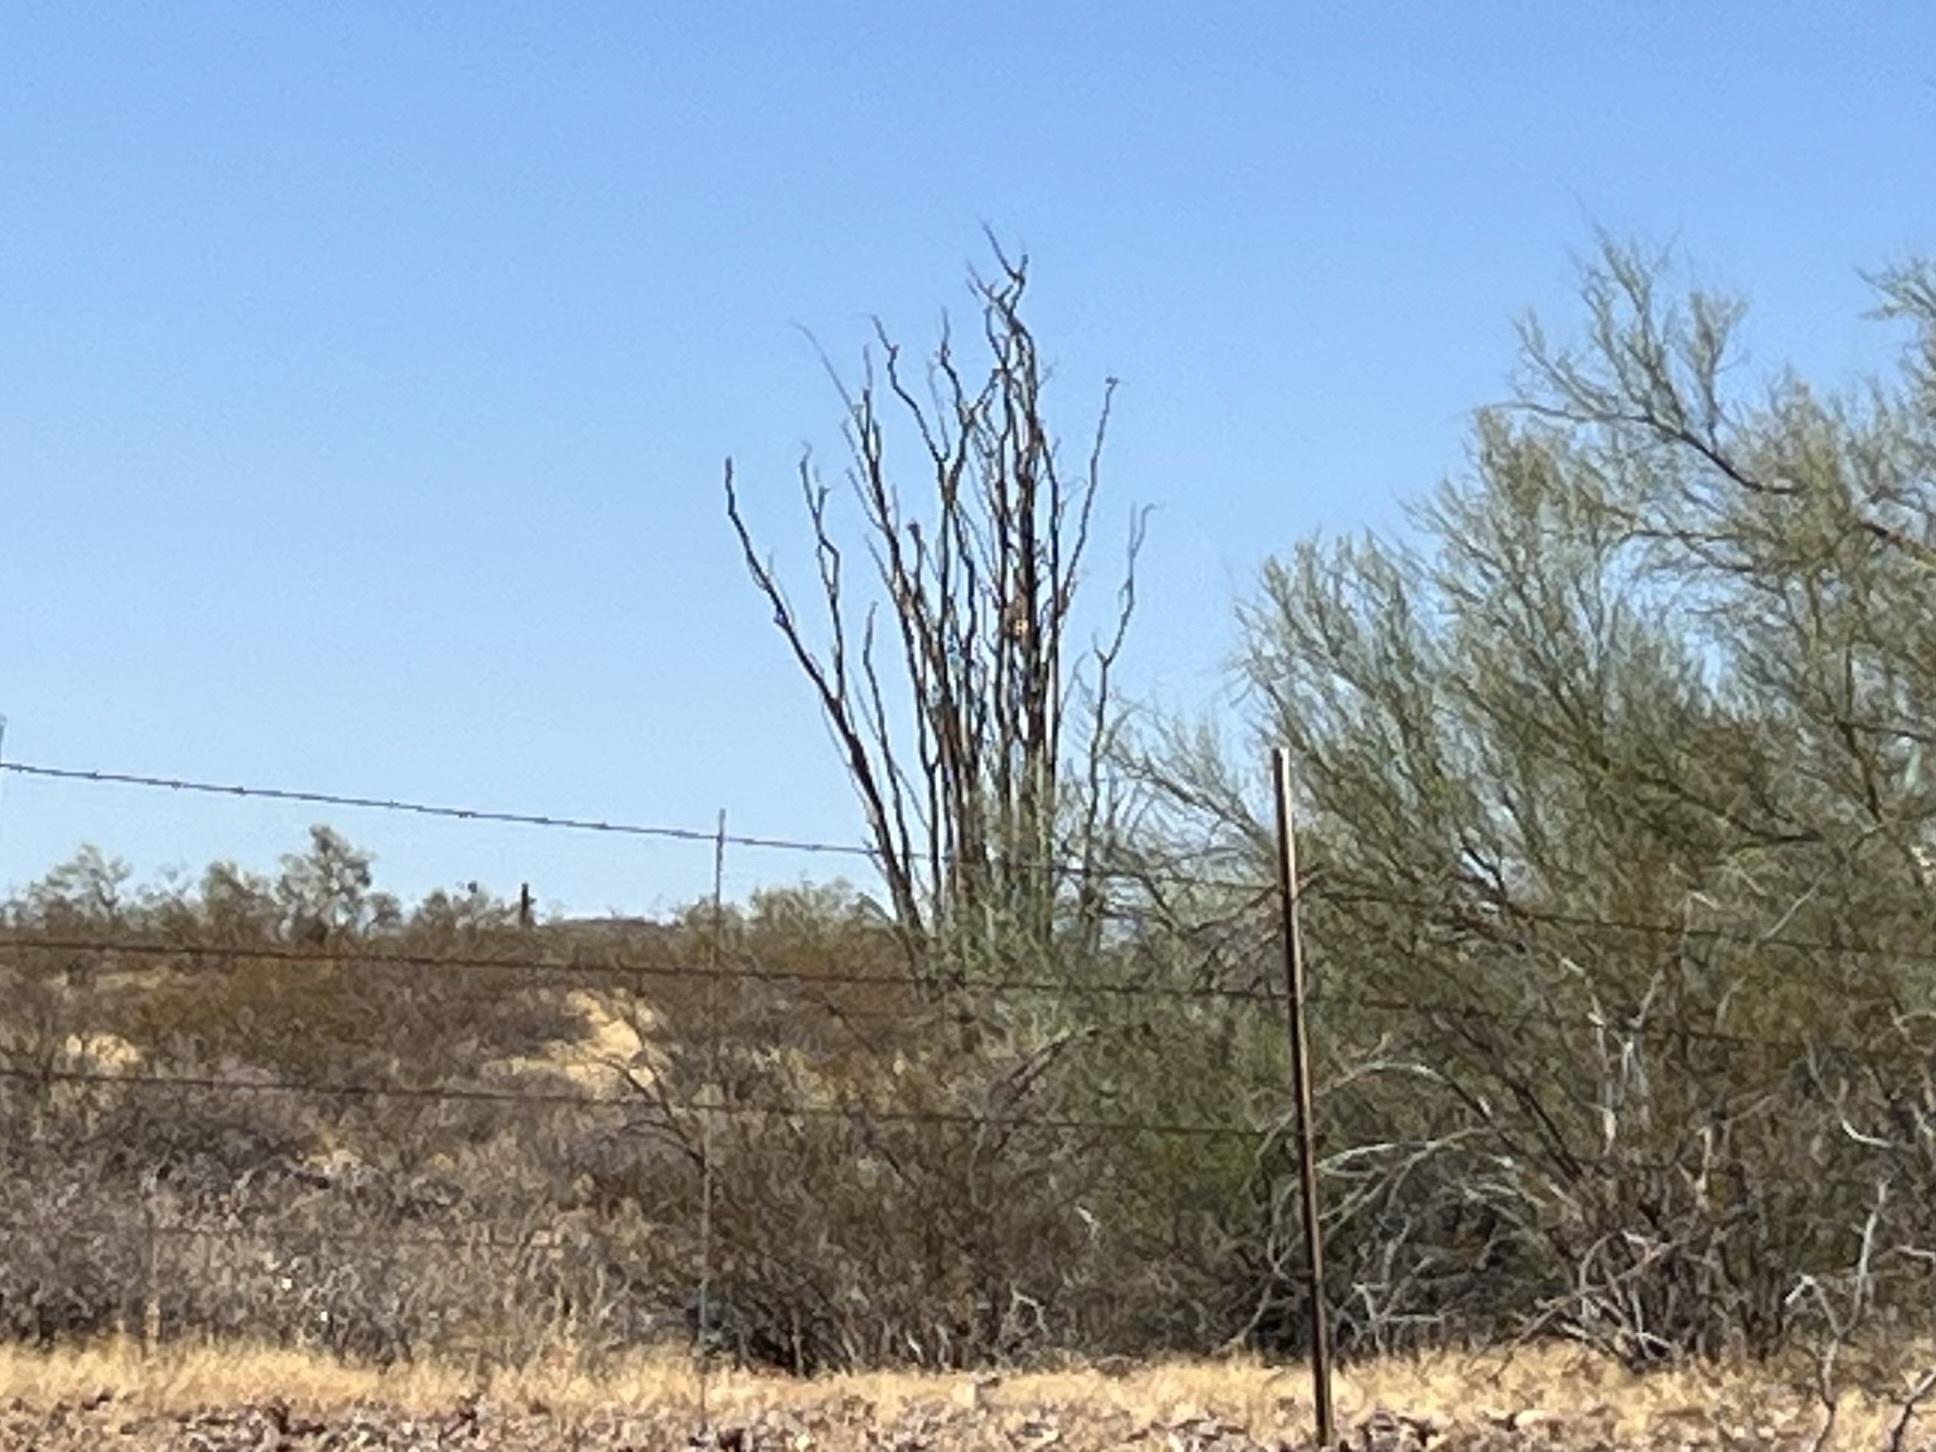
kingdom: Plantae
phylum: Tracheophyta
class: Magnoliopsida
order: Ericales
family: Fouquieriaceae
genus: Fouquieria
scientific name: Fouquieria splendens
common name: Vine-cactus
